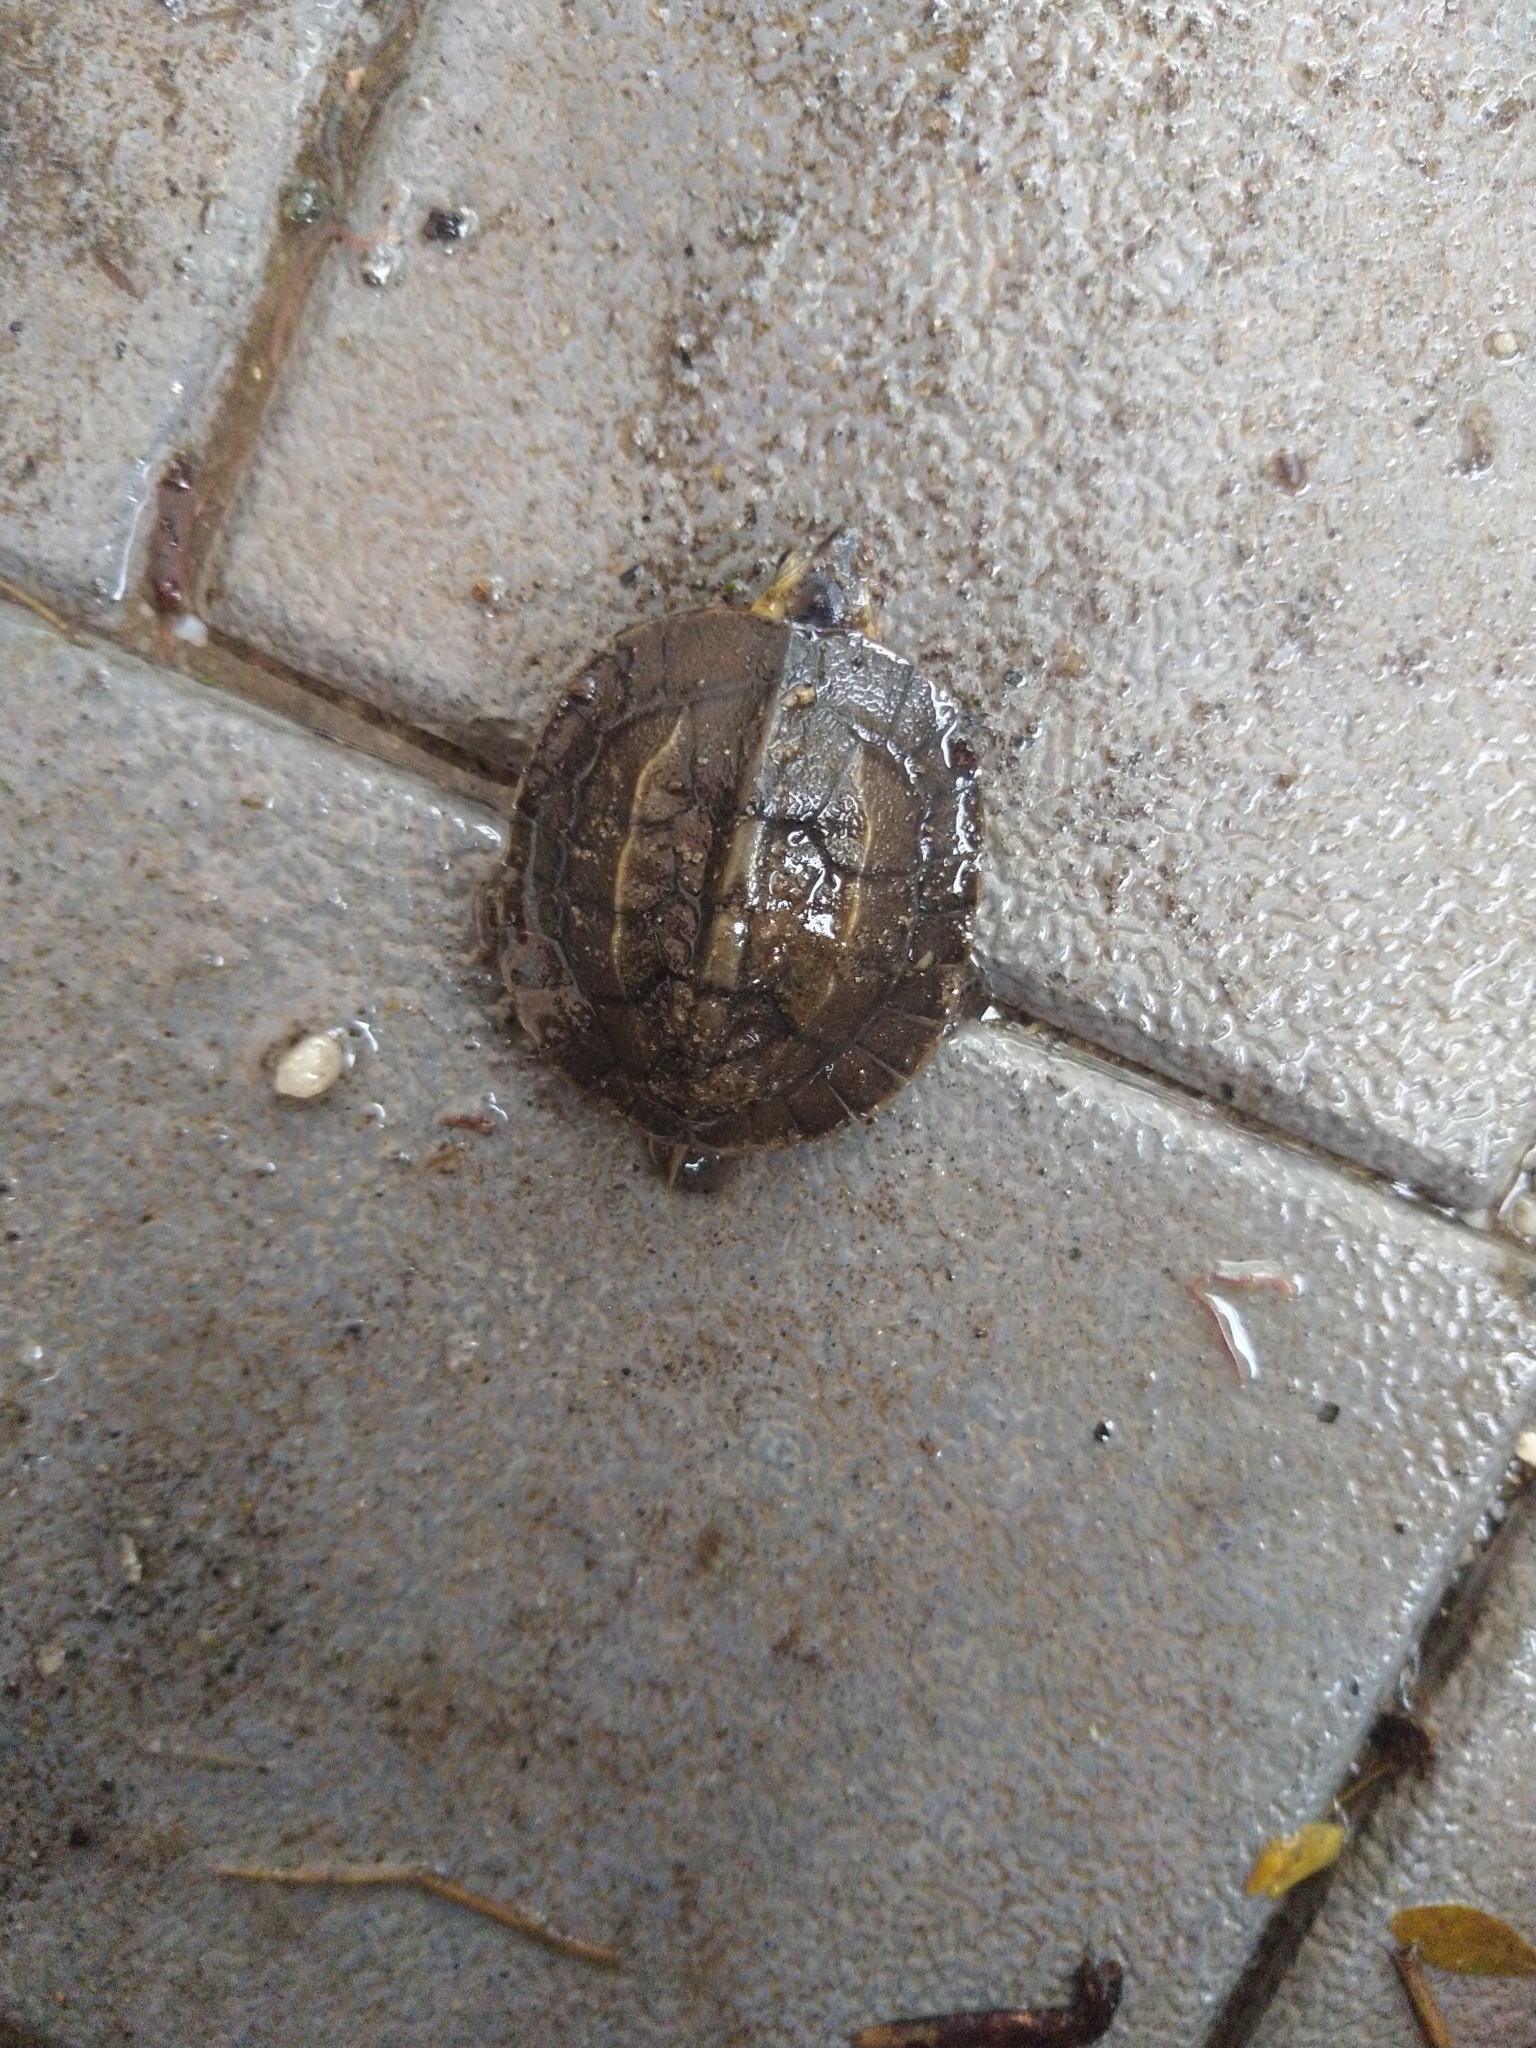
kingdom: Animalia
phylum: Chordata
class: Testudines
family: Geoemydidae
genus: Melanochelys
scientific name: Melanochelys trijuga
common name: Indian black turtle
